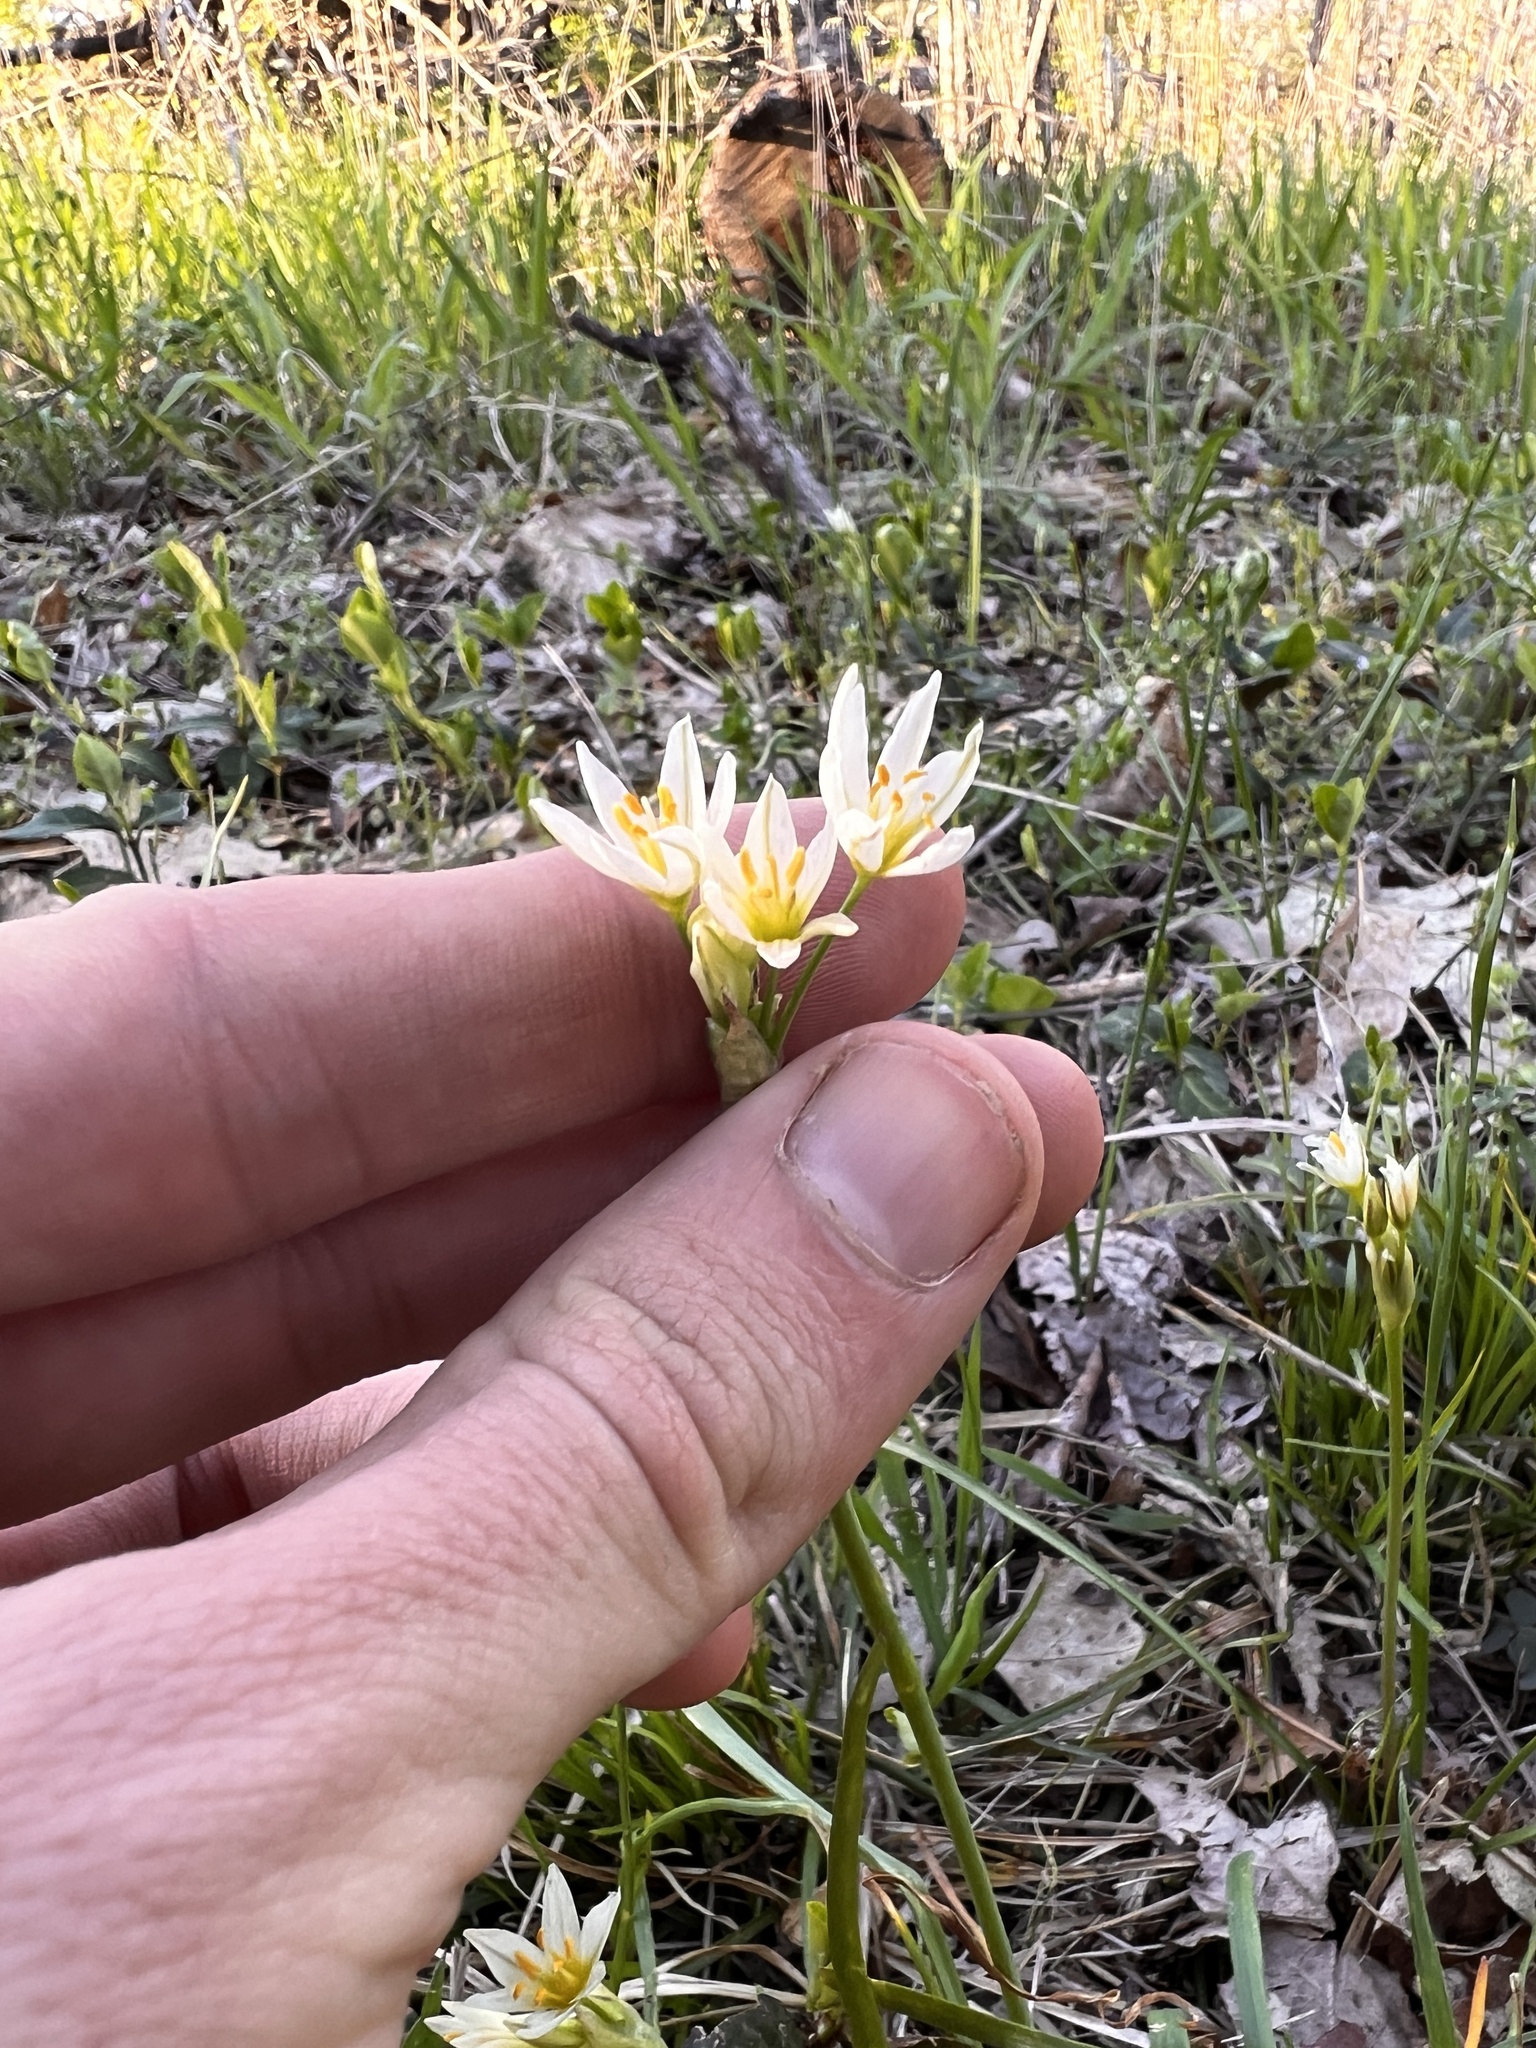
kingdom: Plantae
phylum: Tracheophyta
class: Liliopsida
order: Asparagales
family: Amaryllidaceae
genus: Nothoscordum
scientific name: Nothoscordum bivalve
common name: Crow-poison
